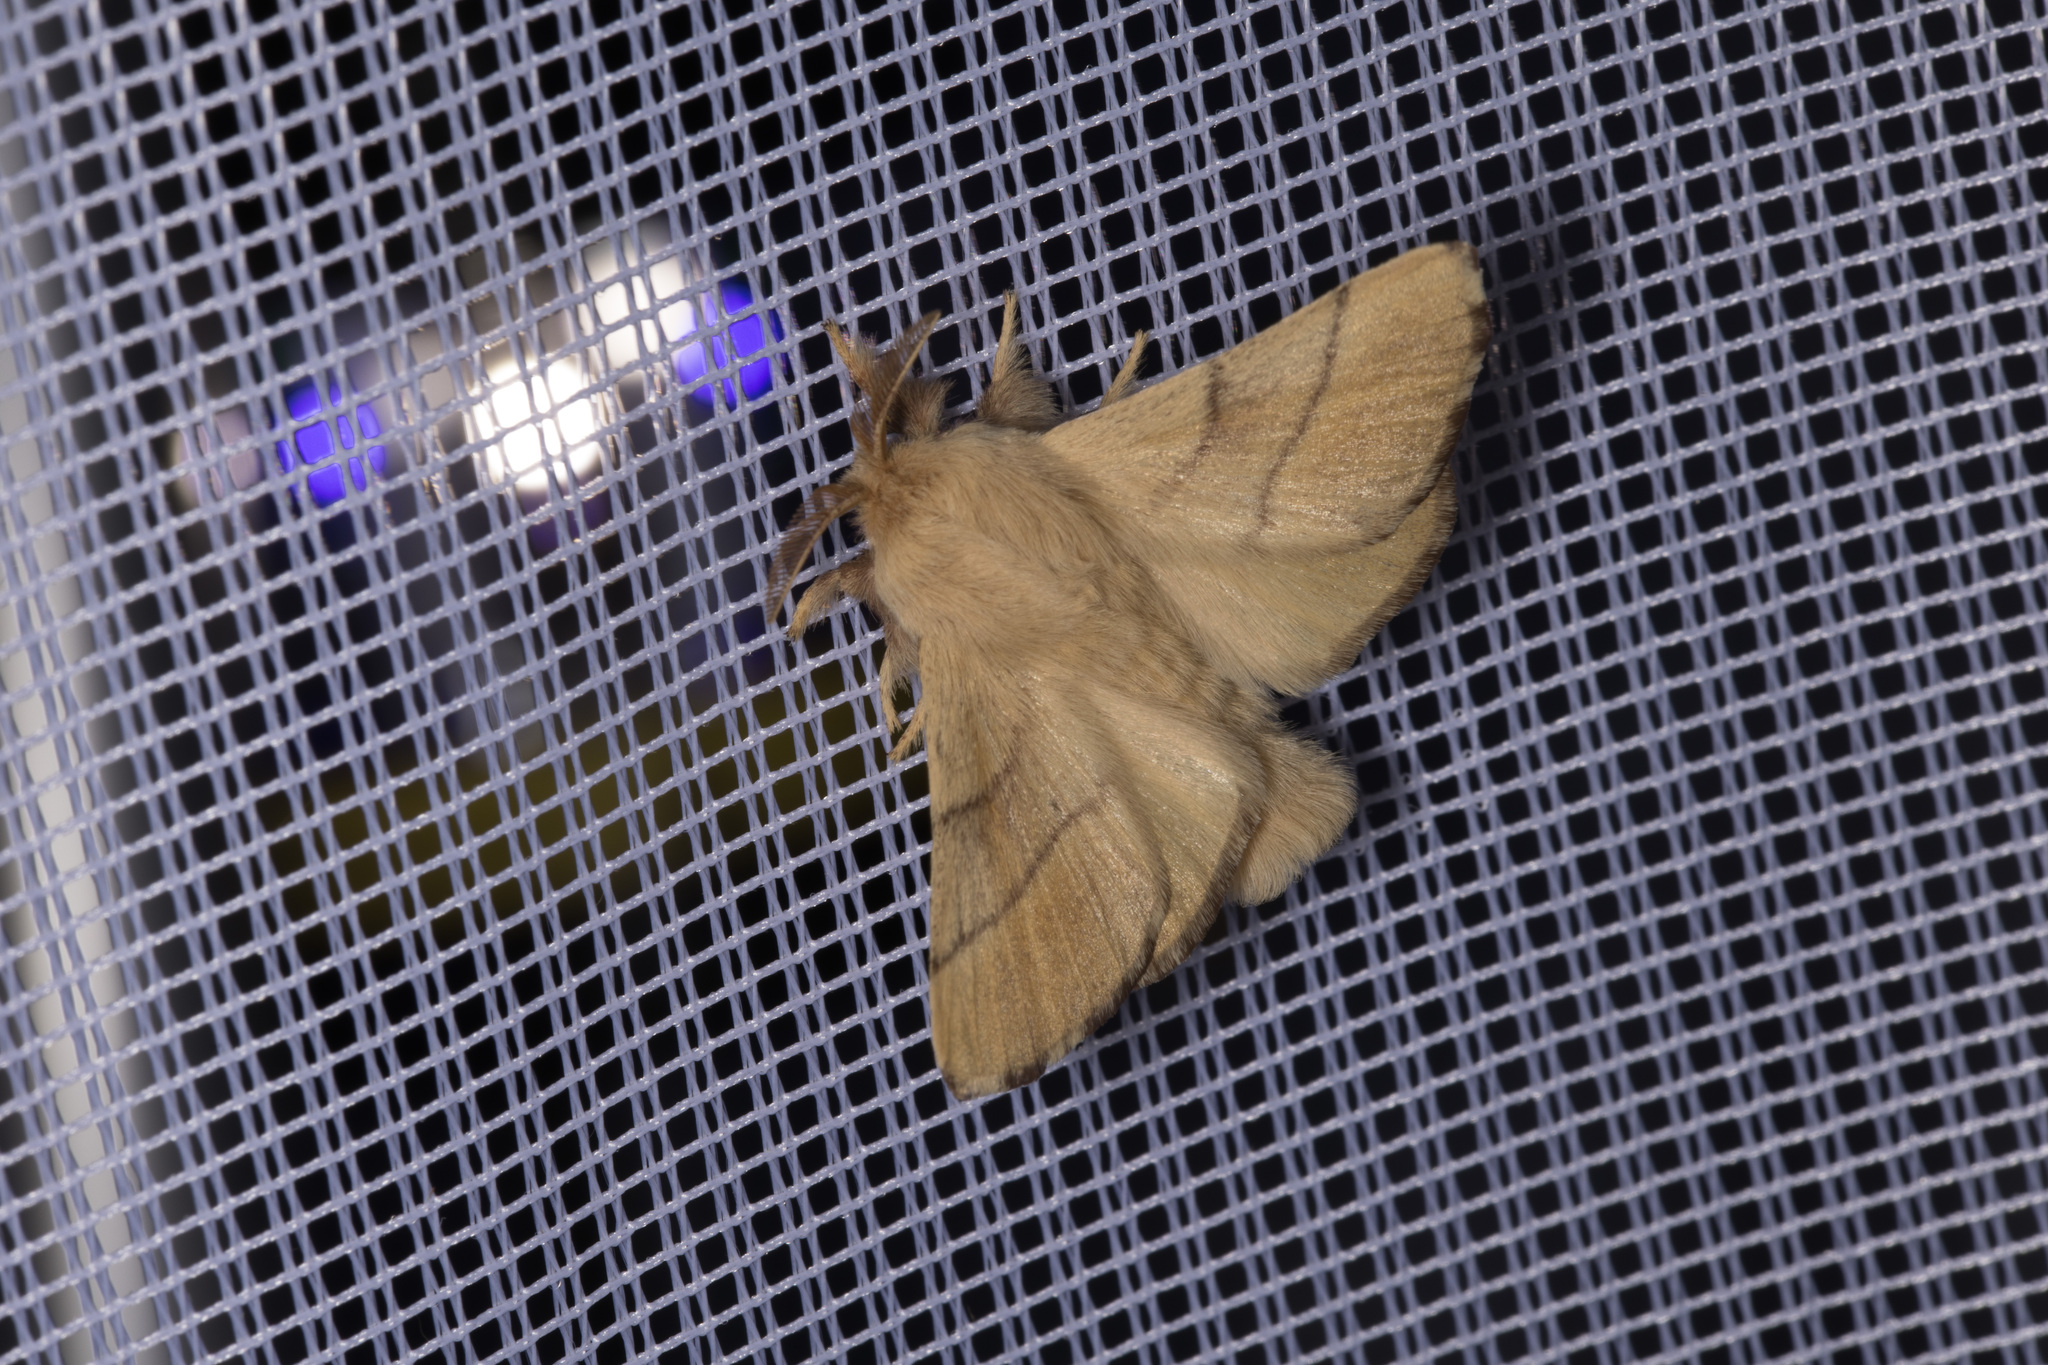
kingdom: Animalia
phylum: Arthropoda
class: Insecta
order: Lepidoptera
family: Lasiocampidae
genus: Malacosoma
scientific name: Malacosoma neustria
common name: The lackey
